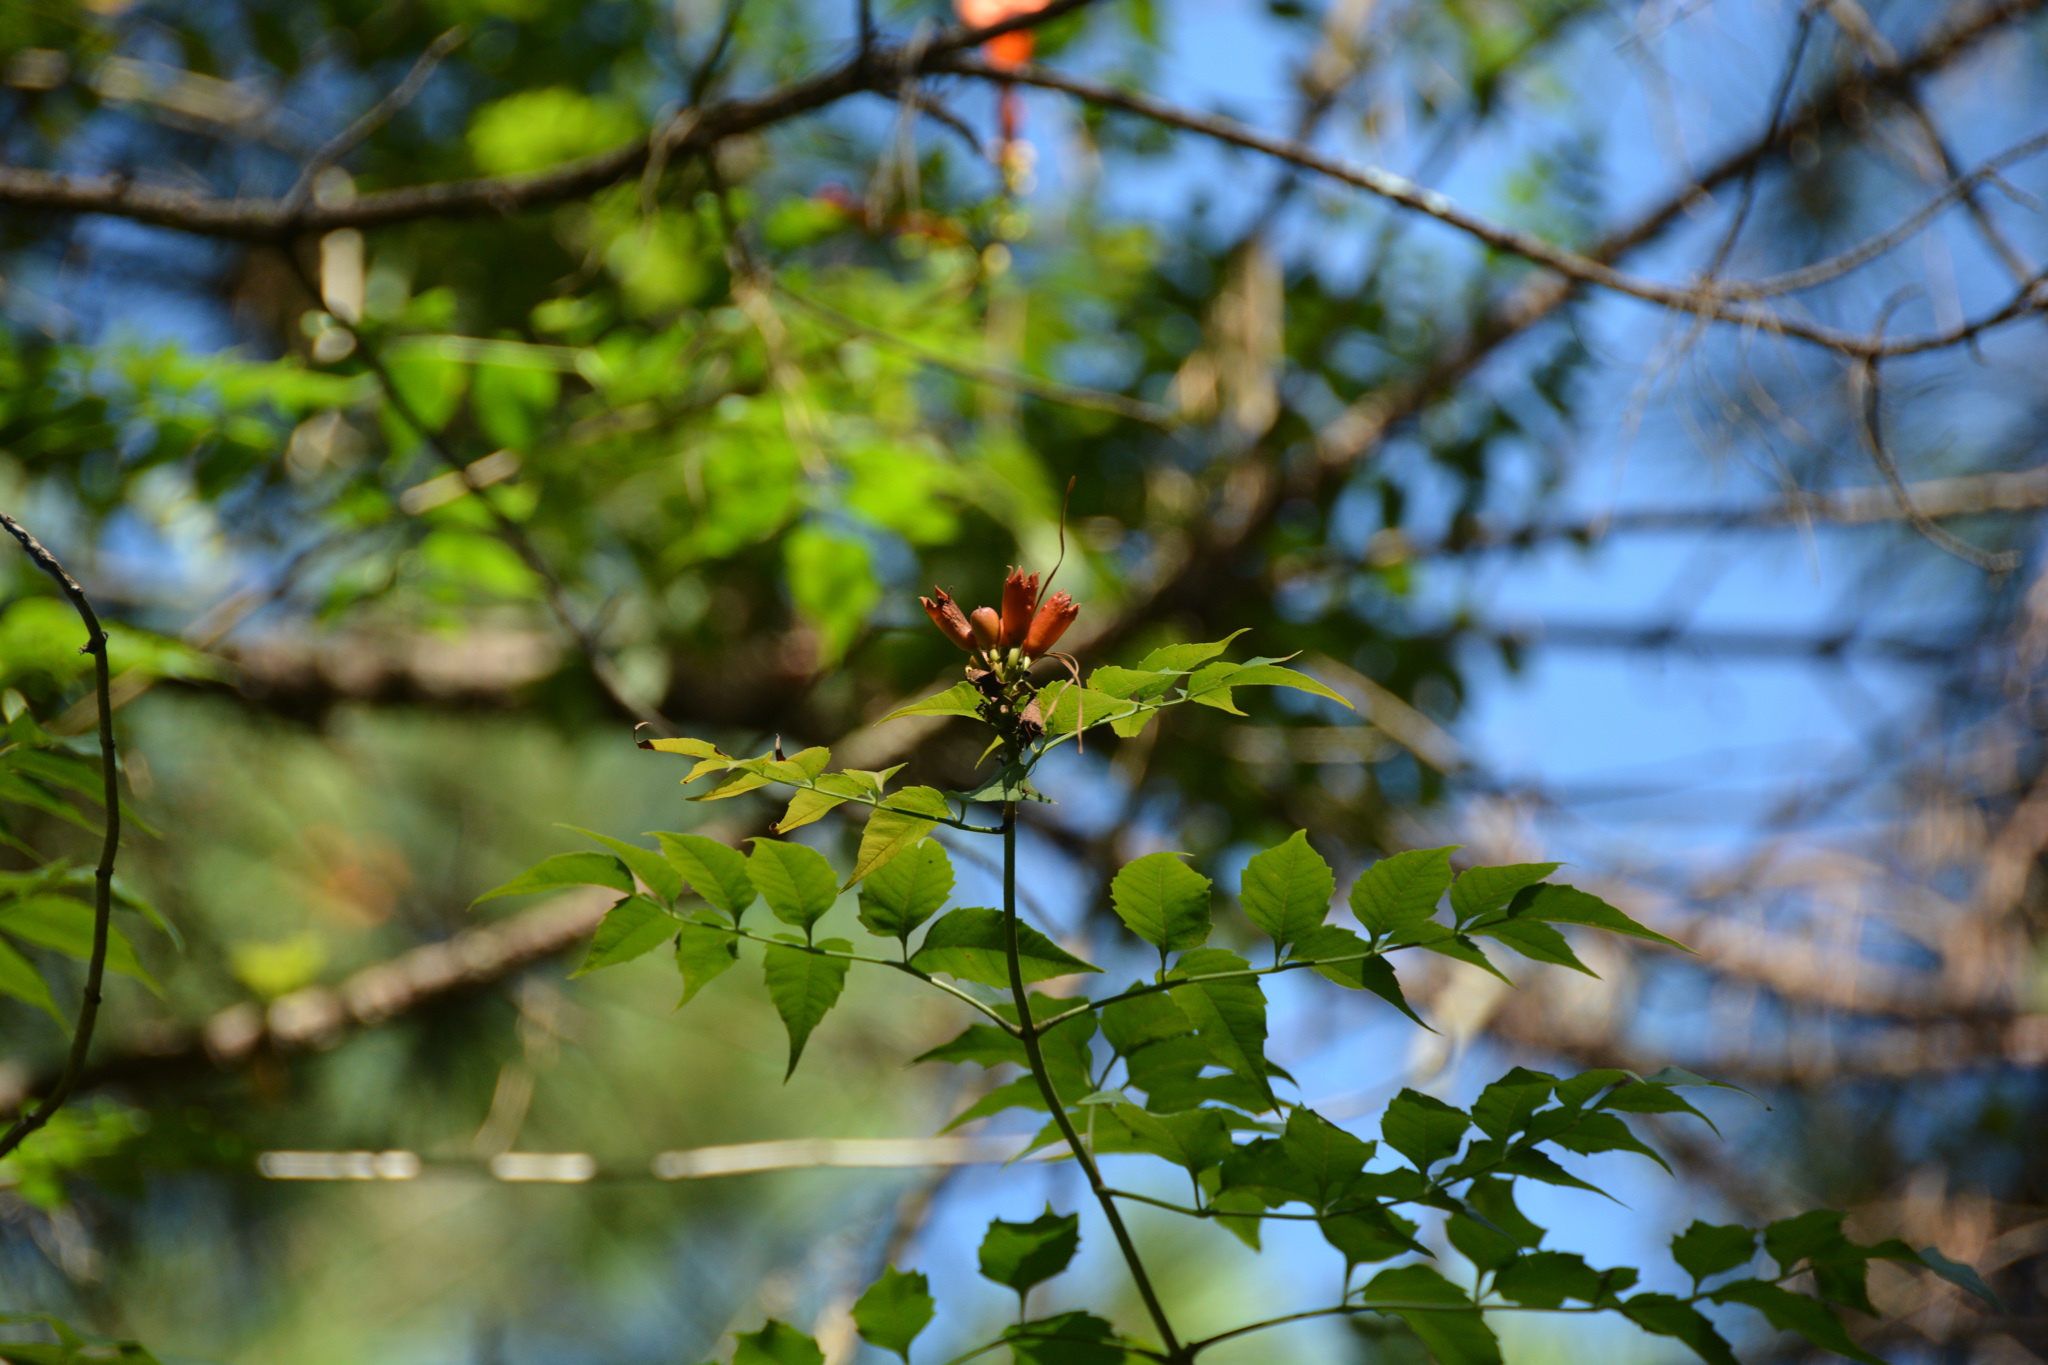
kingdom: Plantae
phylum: Tracheophyta
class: Magnoliopsida
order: Lamiales
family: Bignoniaceae
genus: Campsis
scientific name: Campsis radicans
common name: Trumpet-creeper
